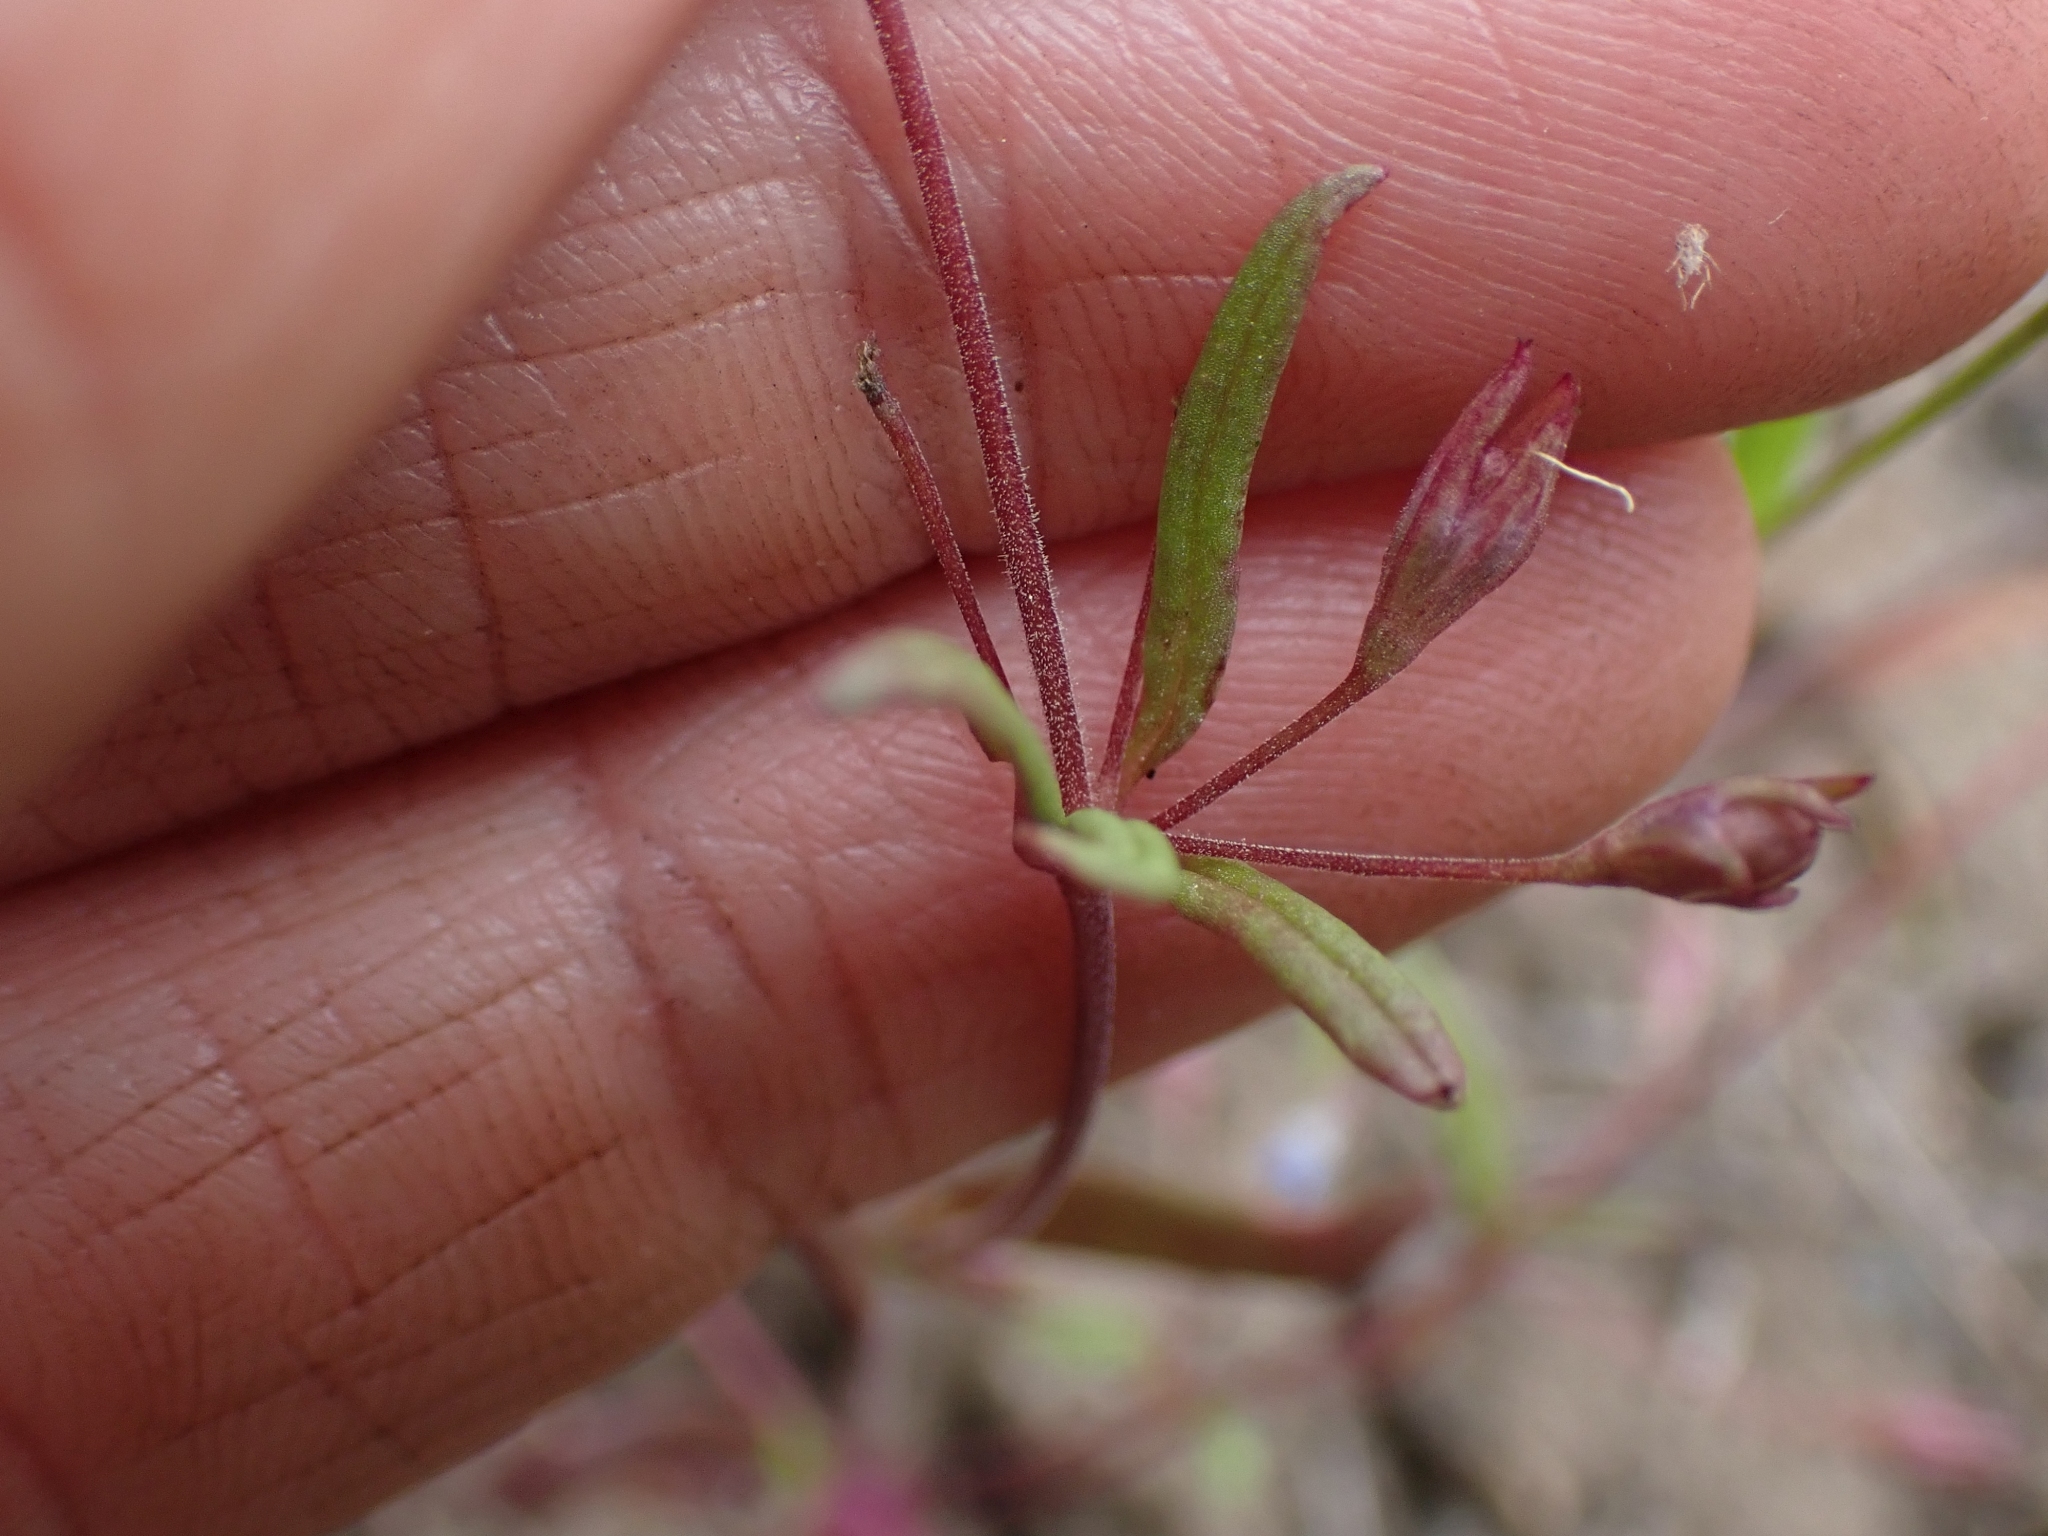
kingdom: Plantae
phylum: Tracheophyta
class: Magnoliopsida
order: Lamiales
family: Plantaginaceae
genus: Collinsia
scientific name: Collinsia parviflora
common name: Blue-lips
